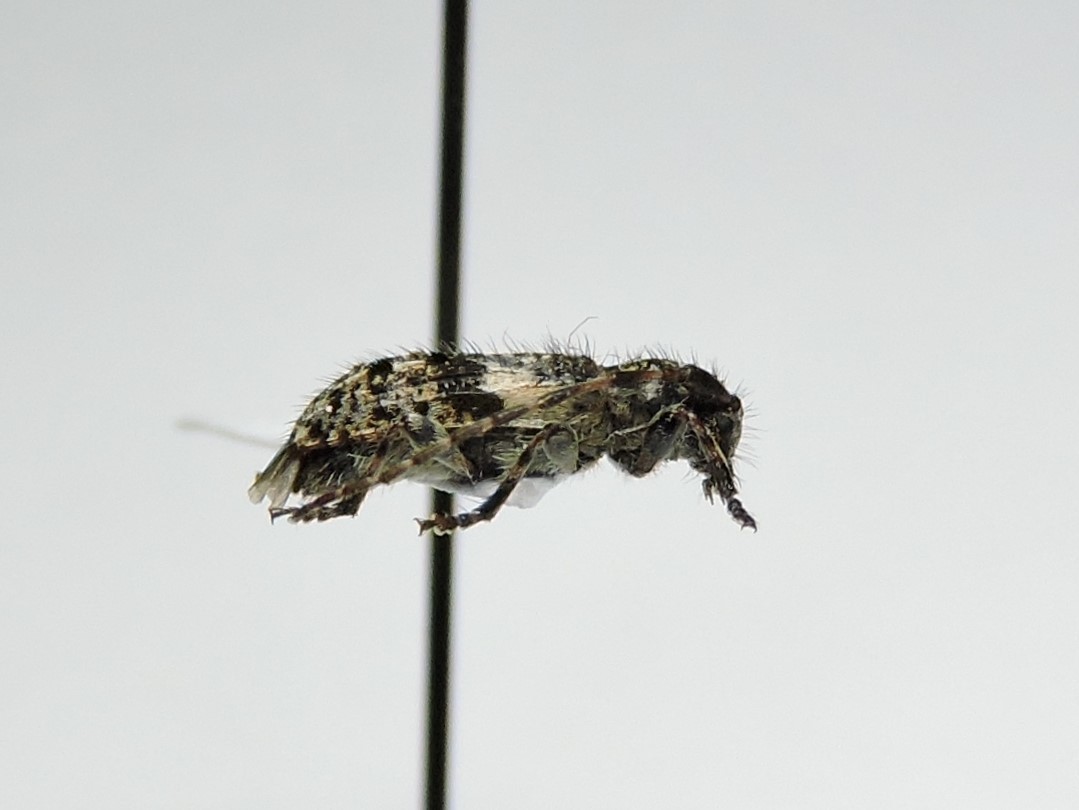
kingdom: Animalia
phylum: Arthropoda
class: Insecta
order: Coleoptera
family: Cerambycidae
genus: Pogonocherus
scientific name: Pogonocherus fasciculatus
